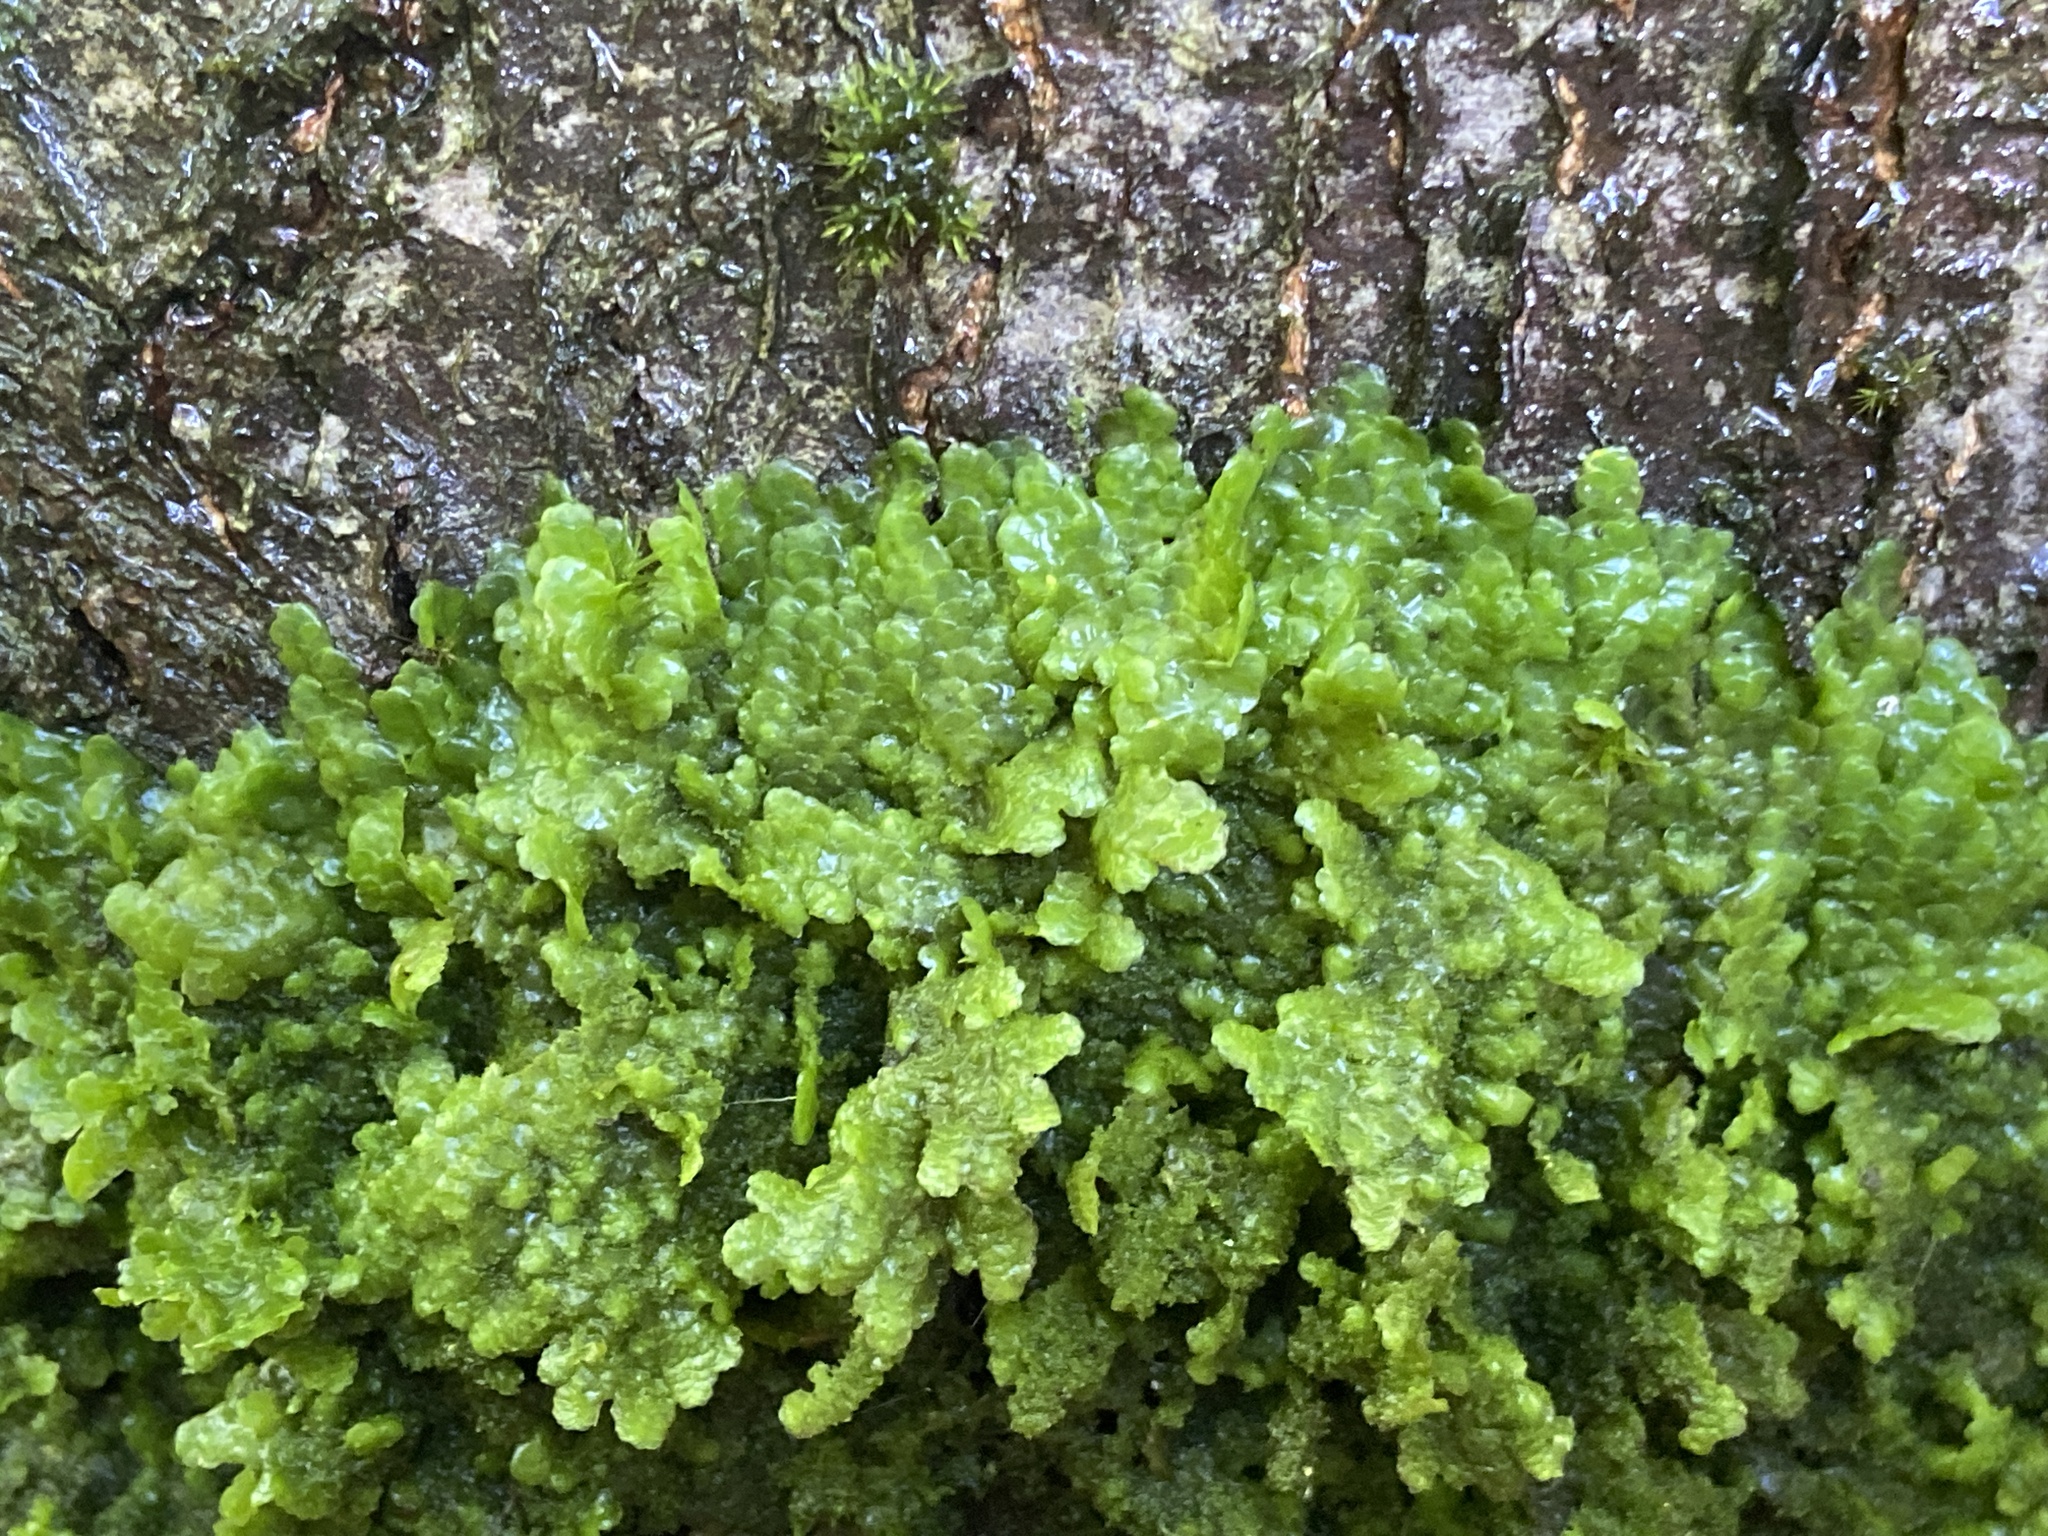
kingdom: Plantae
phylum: Marchantiophyta
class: Jungermanniopsida
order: Porellales
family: Radulaceae
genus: Radula
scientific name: Radula complanata
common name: Flat-leaved scalewort
